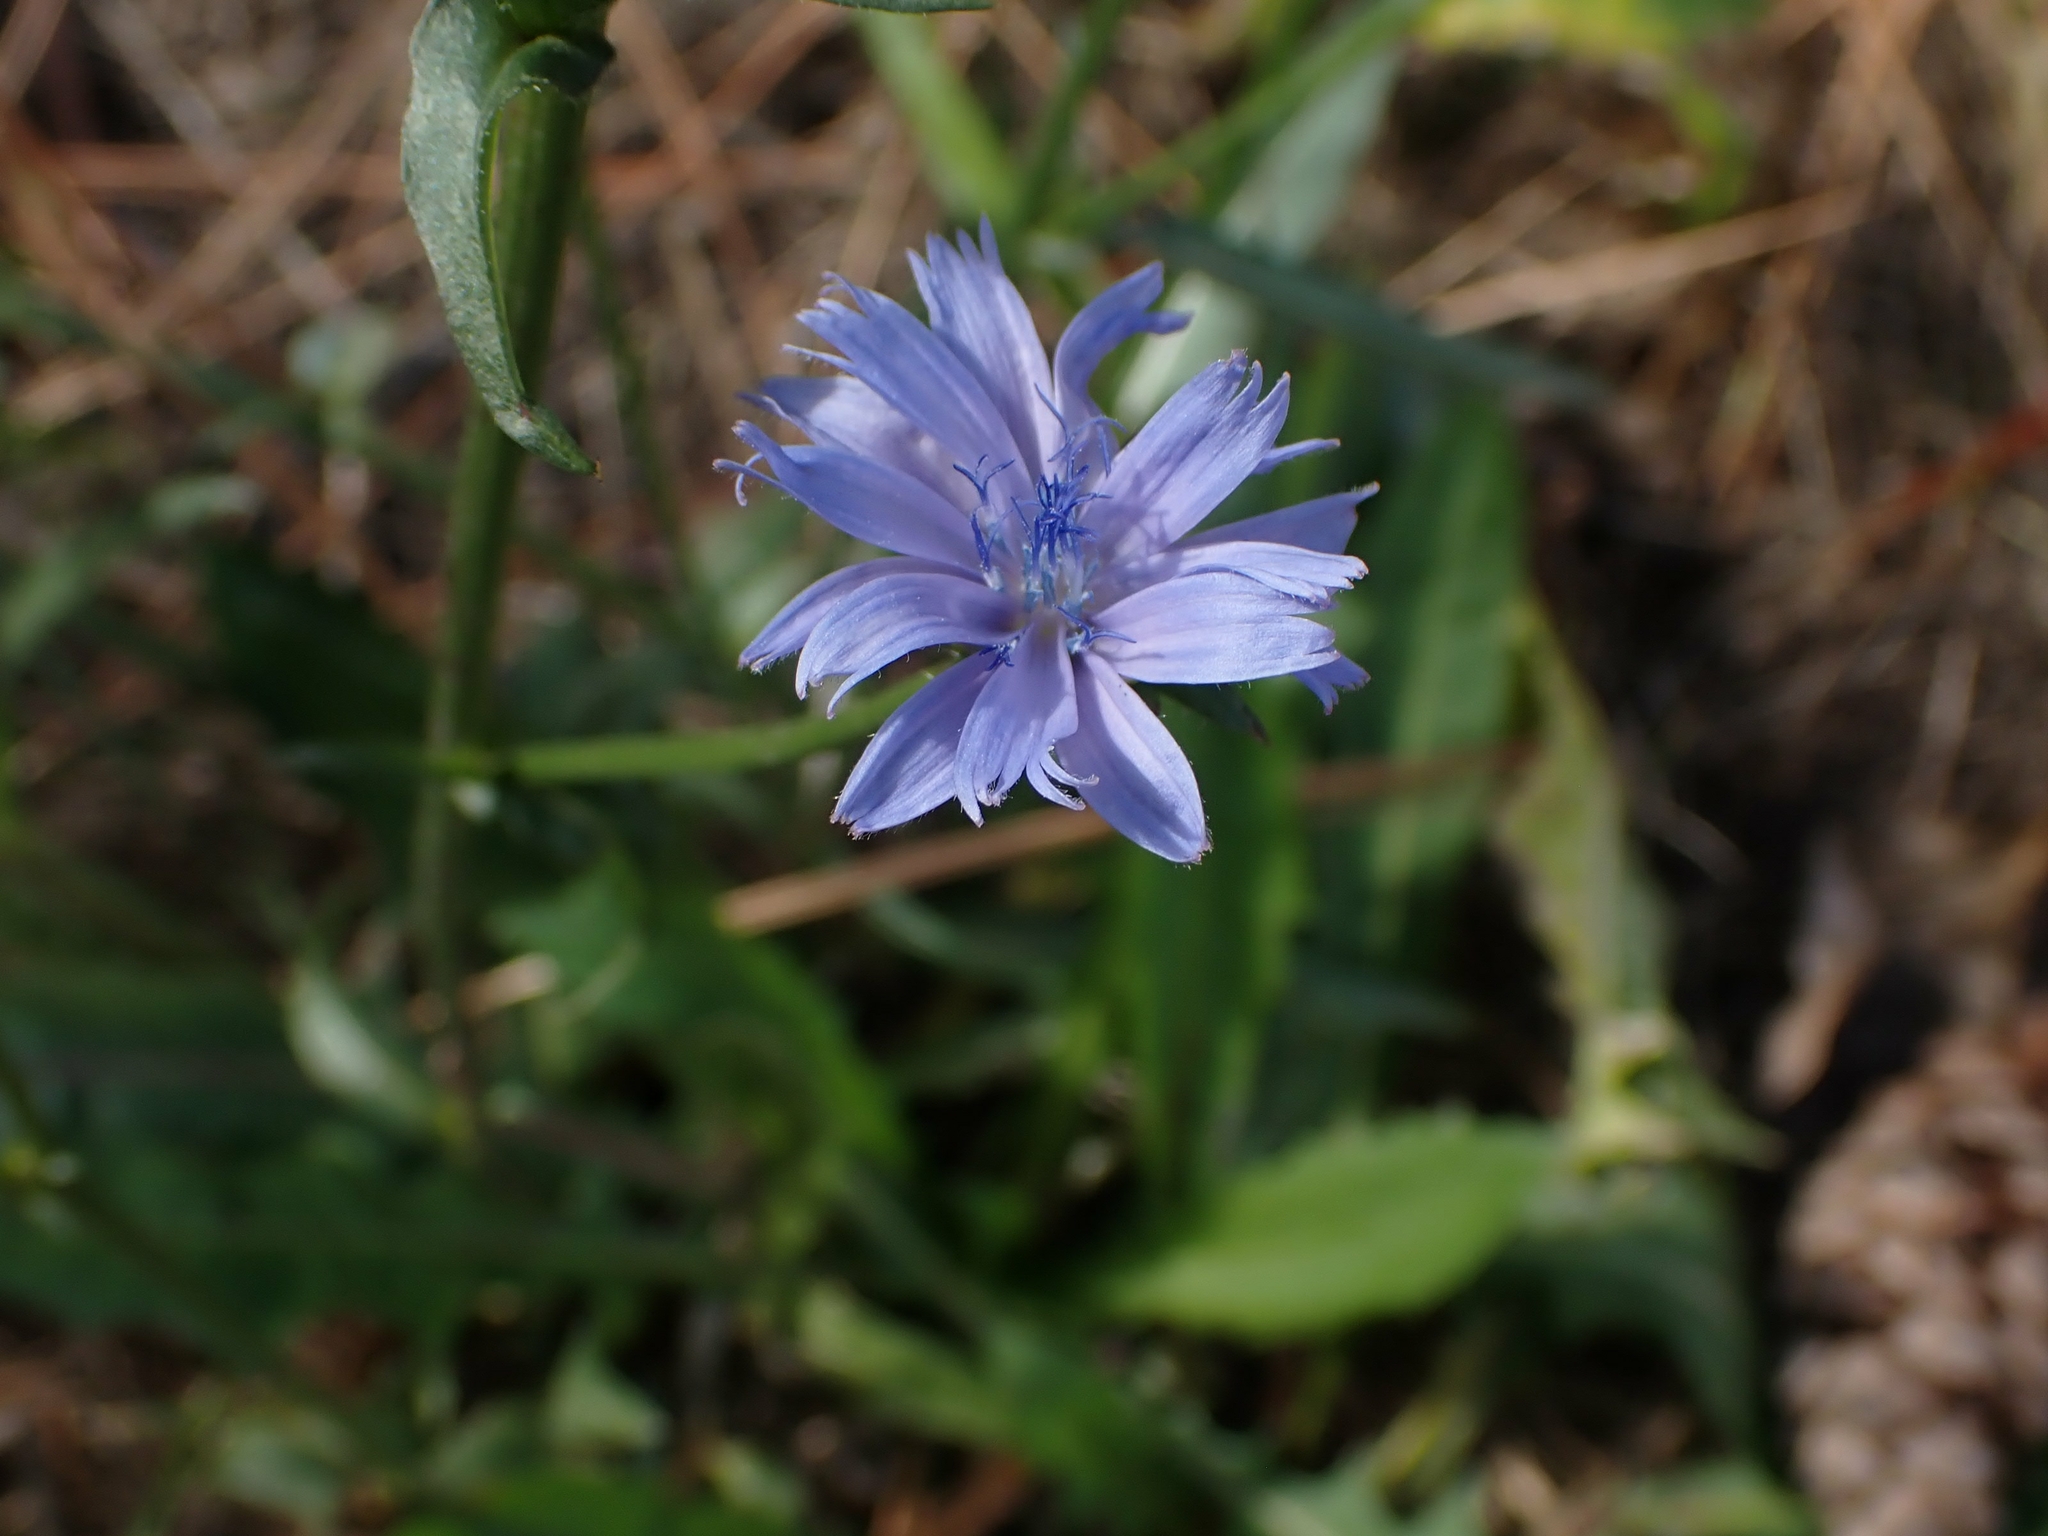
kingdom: Plantae
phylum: Tracheophyta
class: Magnoliopsida
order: Asterales
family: Asteraceae
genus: Cichorium
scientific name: Cichorium intybus
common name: Chicory
